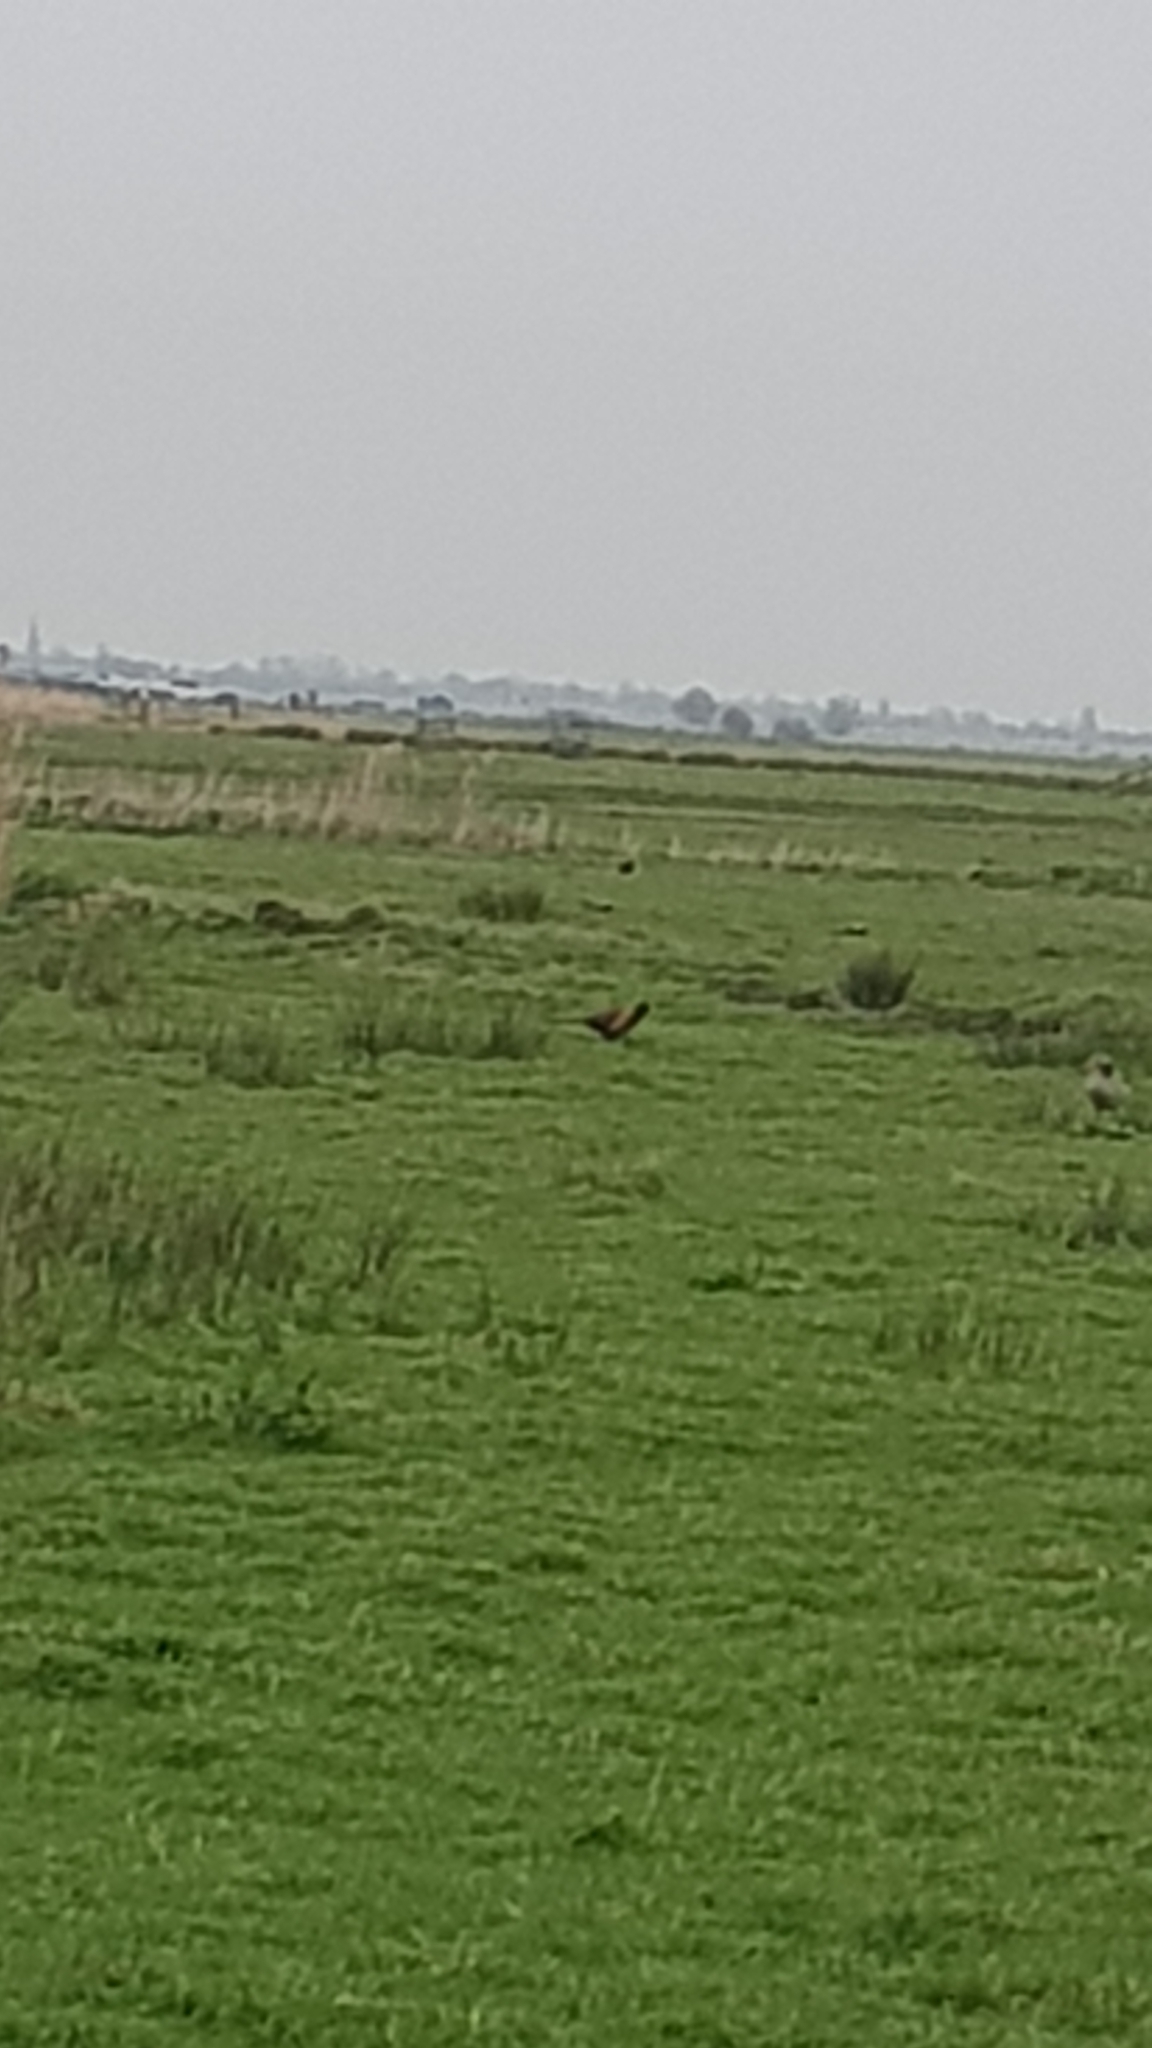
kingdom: Animalia
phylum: Chordata
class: Aves
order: Galliformes
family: Phasianidae
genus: Phasianus
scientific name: Phasianus colchicus
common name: Common pheasant
